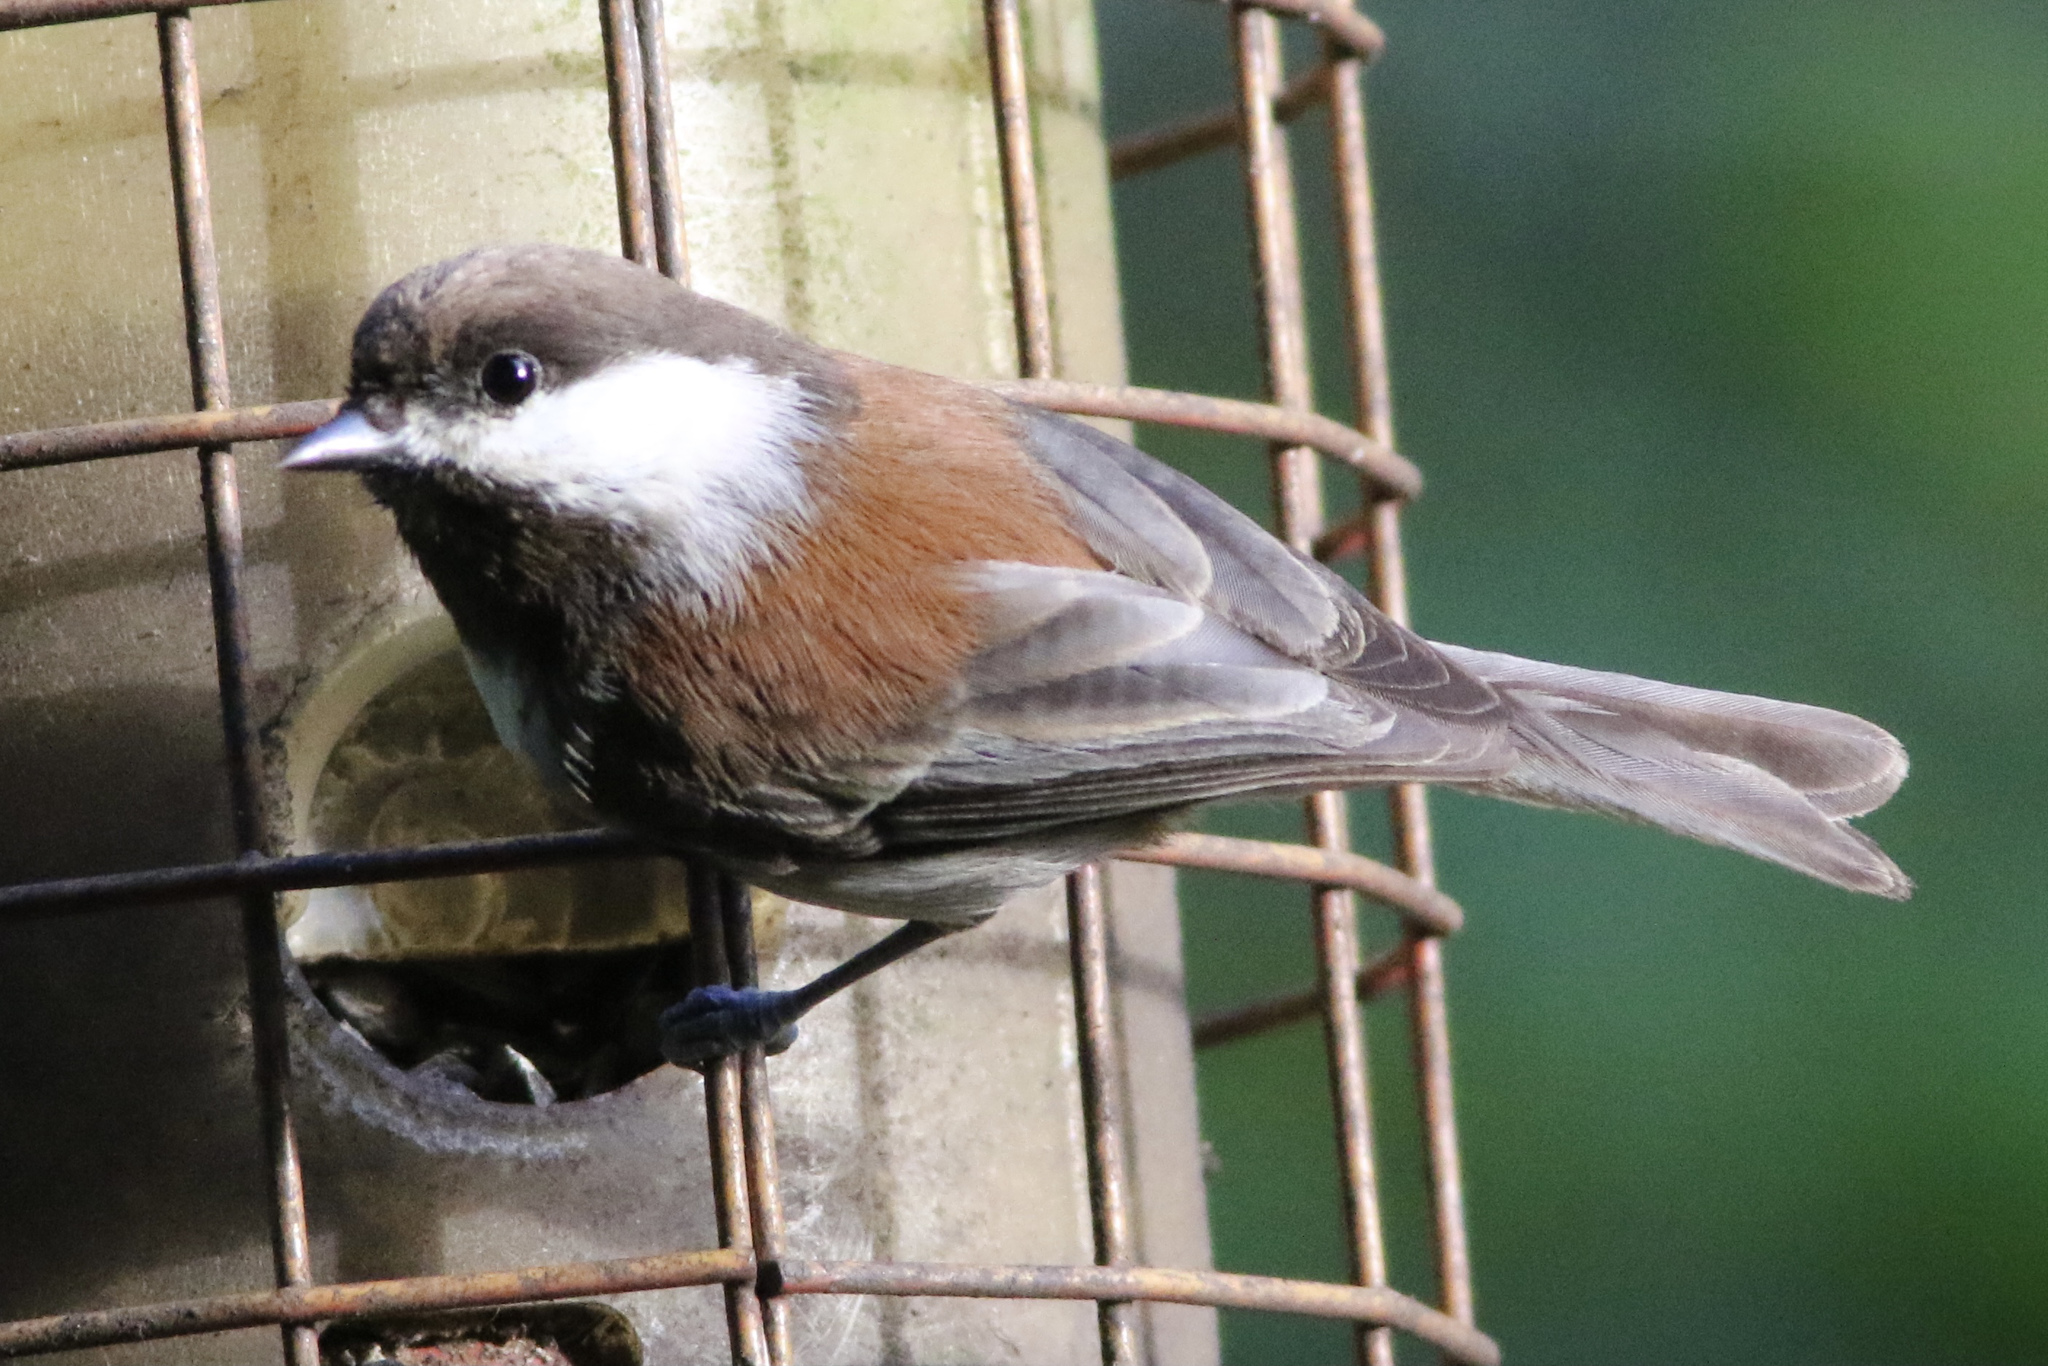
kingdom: Animalia
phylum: Chordata
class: Aves
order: Passeriformes
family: Paridae
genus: Poecile
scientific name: Poecile rufescens
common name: Chestnut-backed chickadee
